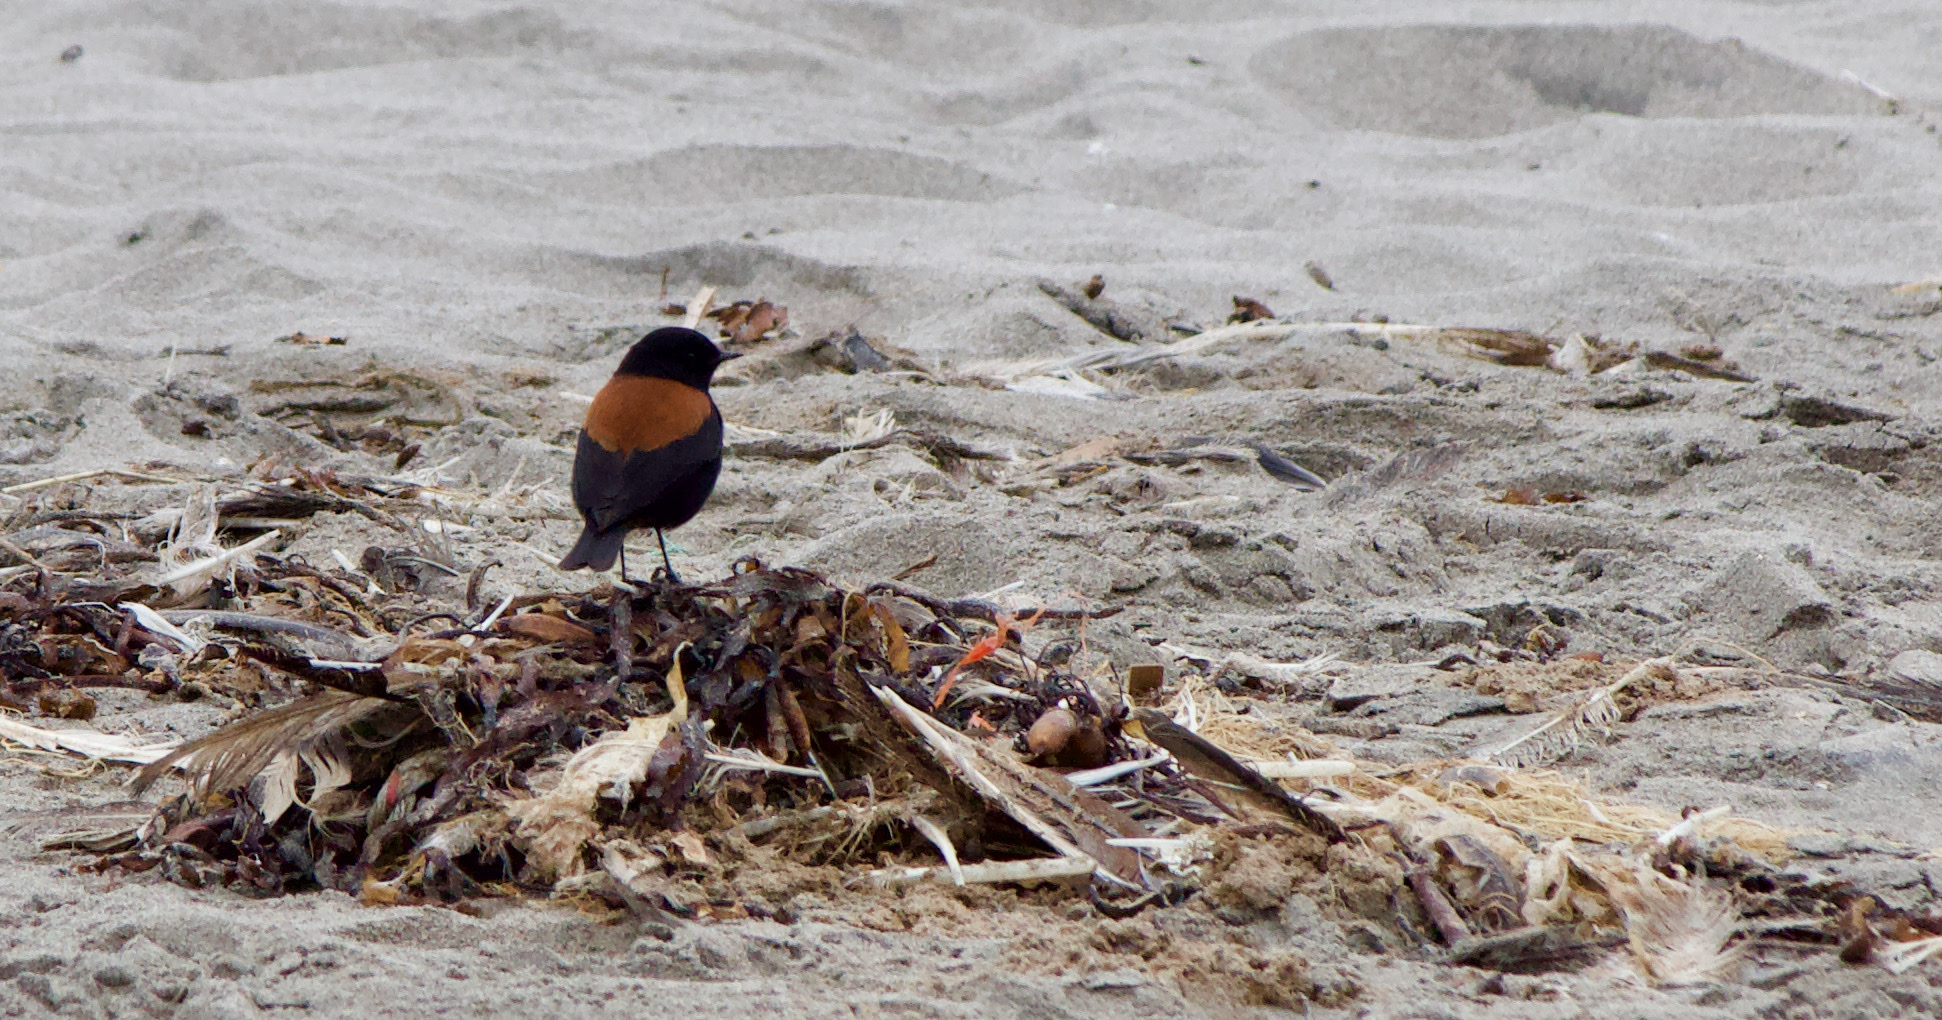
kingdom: Animalia
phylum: Chordata
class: Aves
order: Passeriformes
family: Tyrannidae
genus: Lessonia
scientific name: Lessonia rufa
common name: Austral negrito
